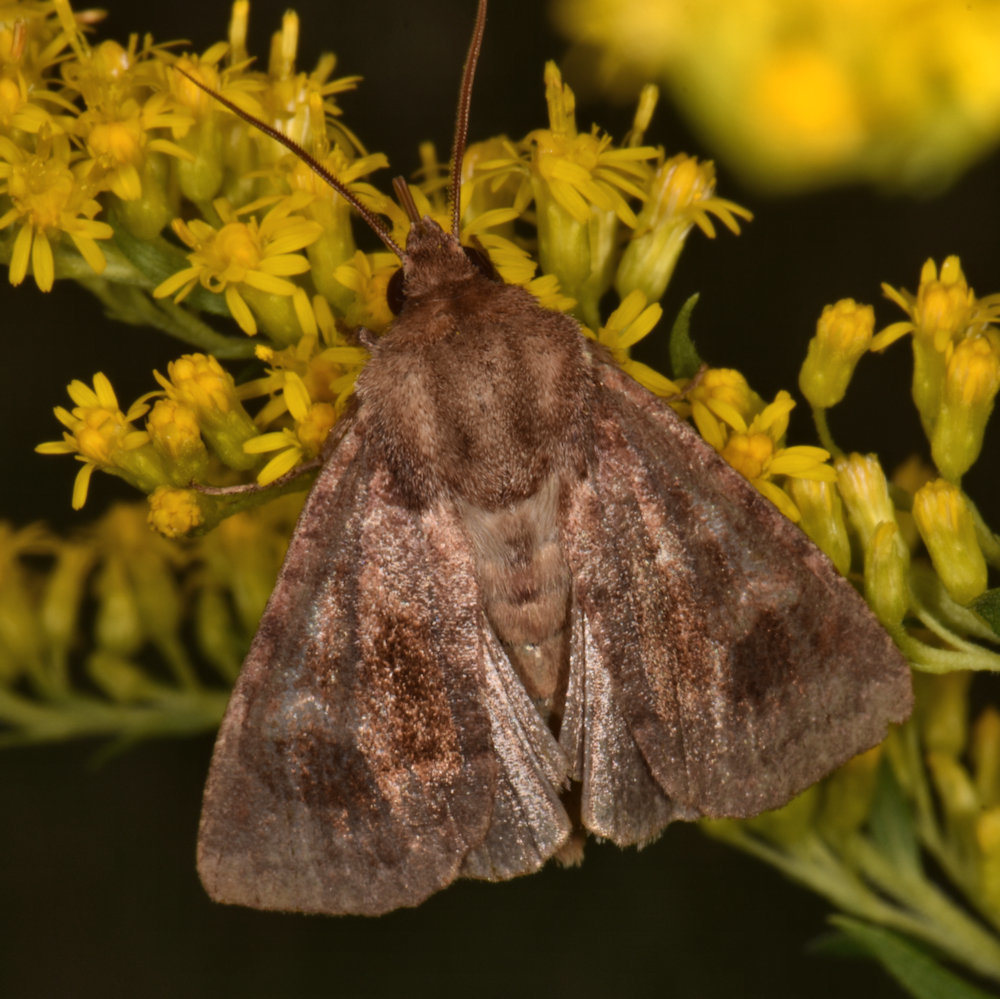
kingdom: Animalia
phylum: Arthropoda
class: Insecta
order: Lepidoptera
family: Noctuidae
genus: Nephelodes
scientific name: Nephelodes minians
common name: Bronzed cutworm
